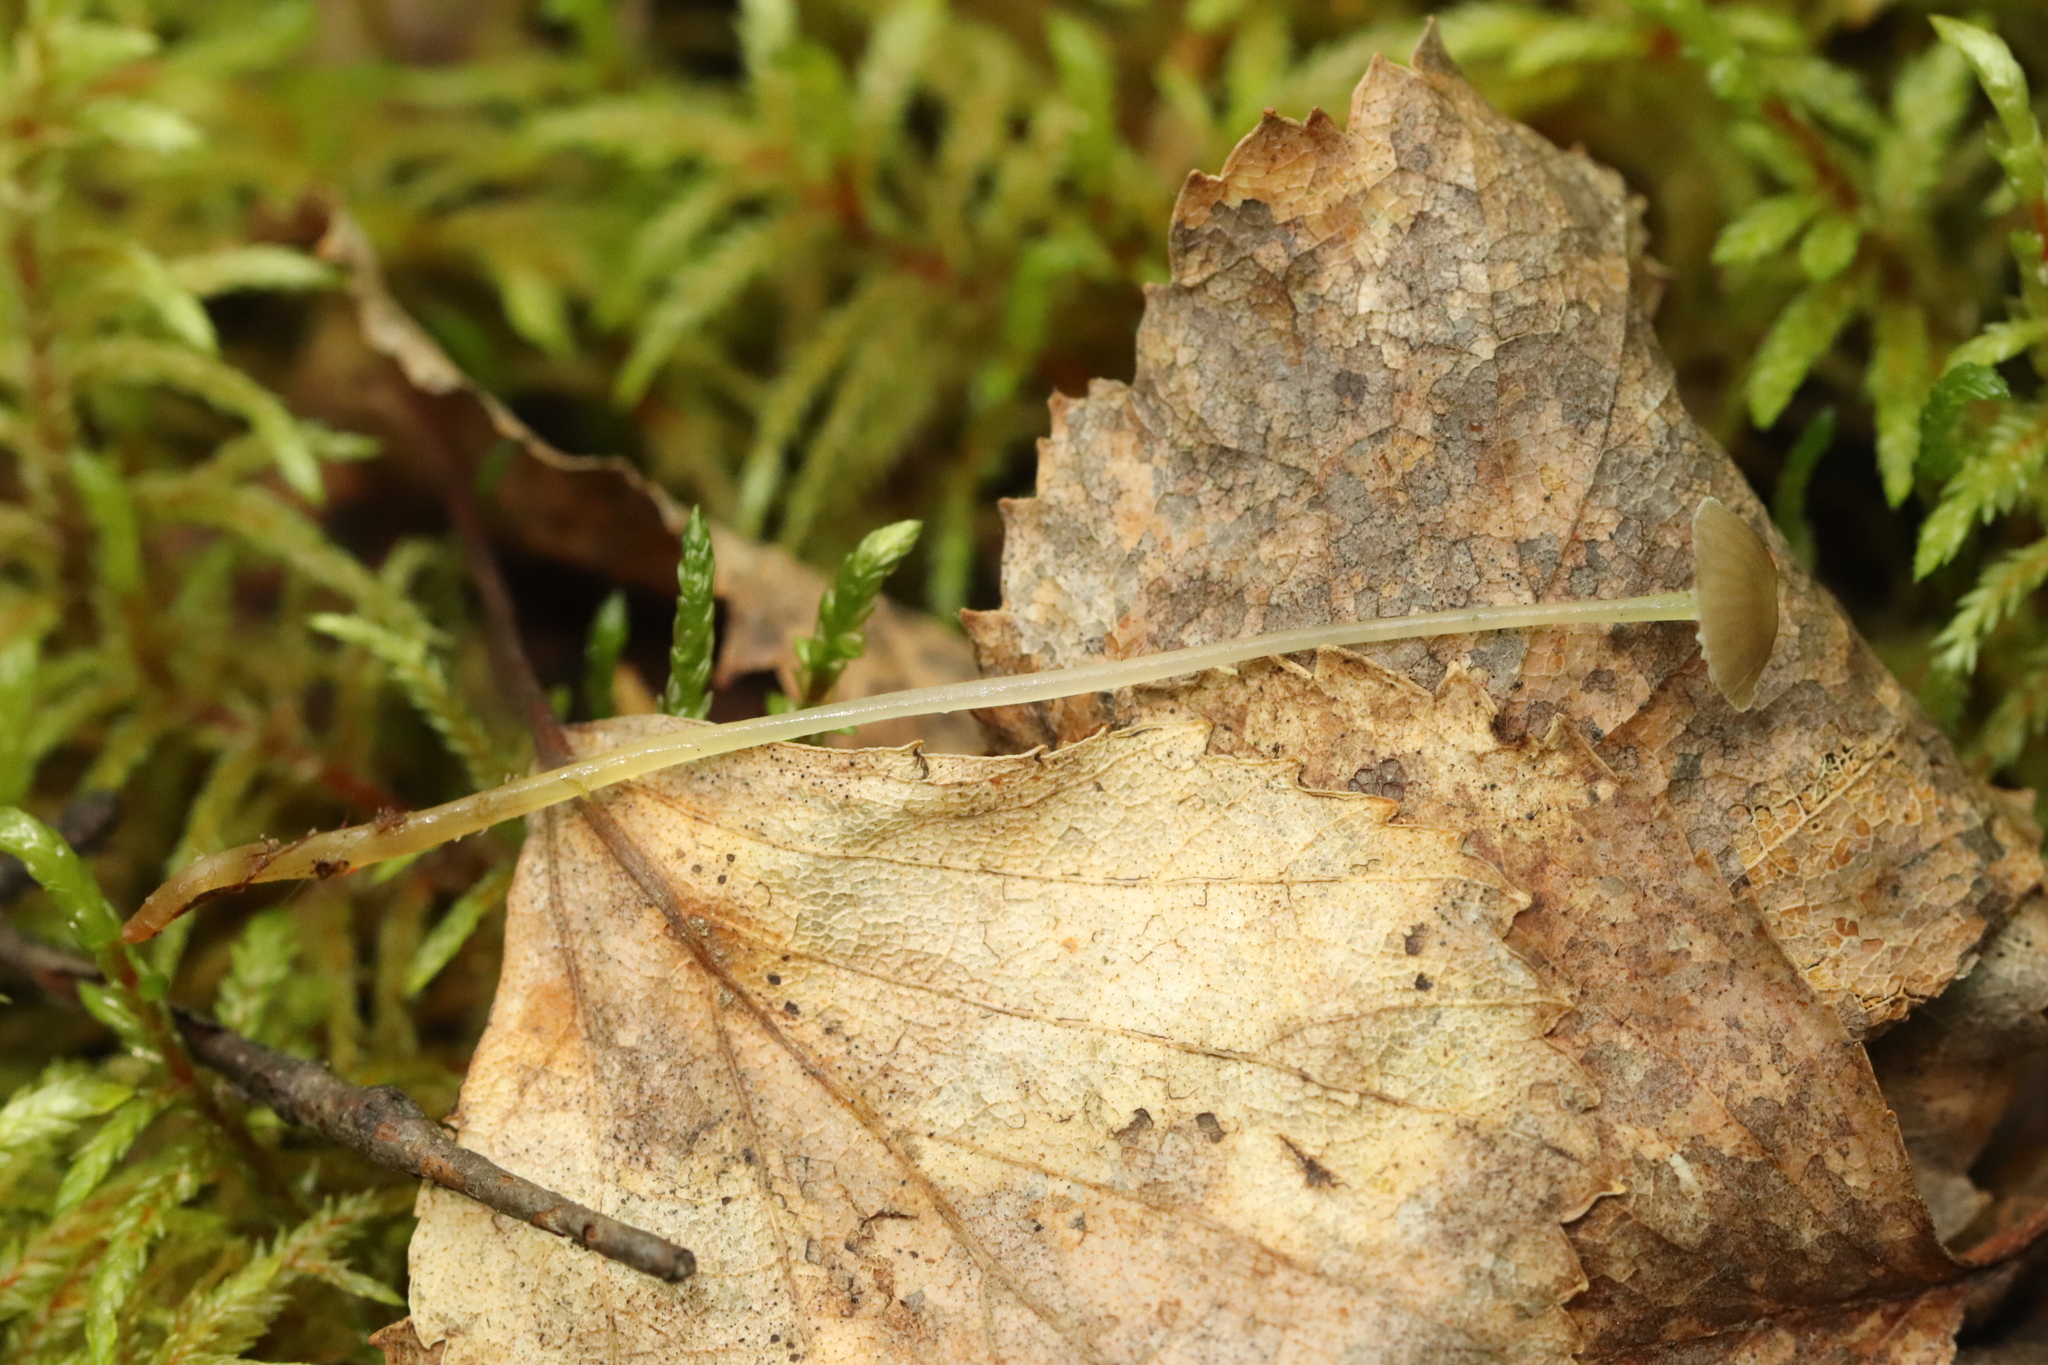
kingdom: Fungi
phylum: Basidiomycota
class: Agaricomycetes
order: Agaricales
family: Mycenaceae
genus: Mycena
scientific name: Mycena epipterygia
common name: Yellowleg bonnet
